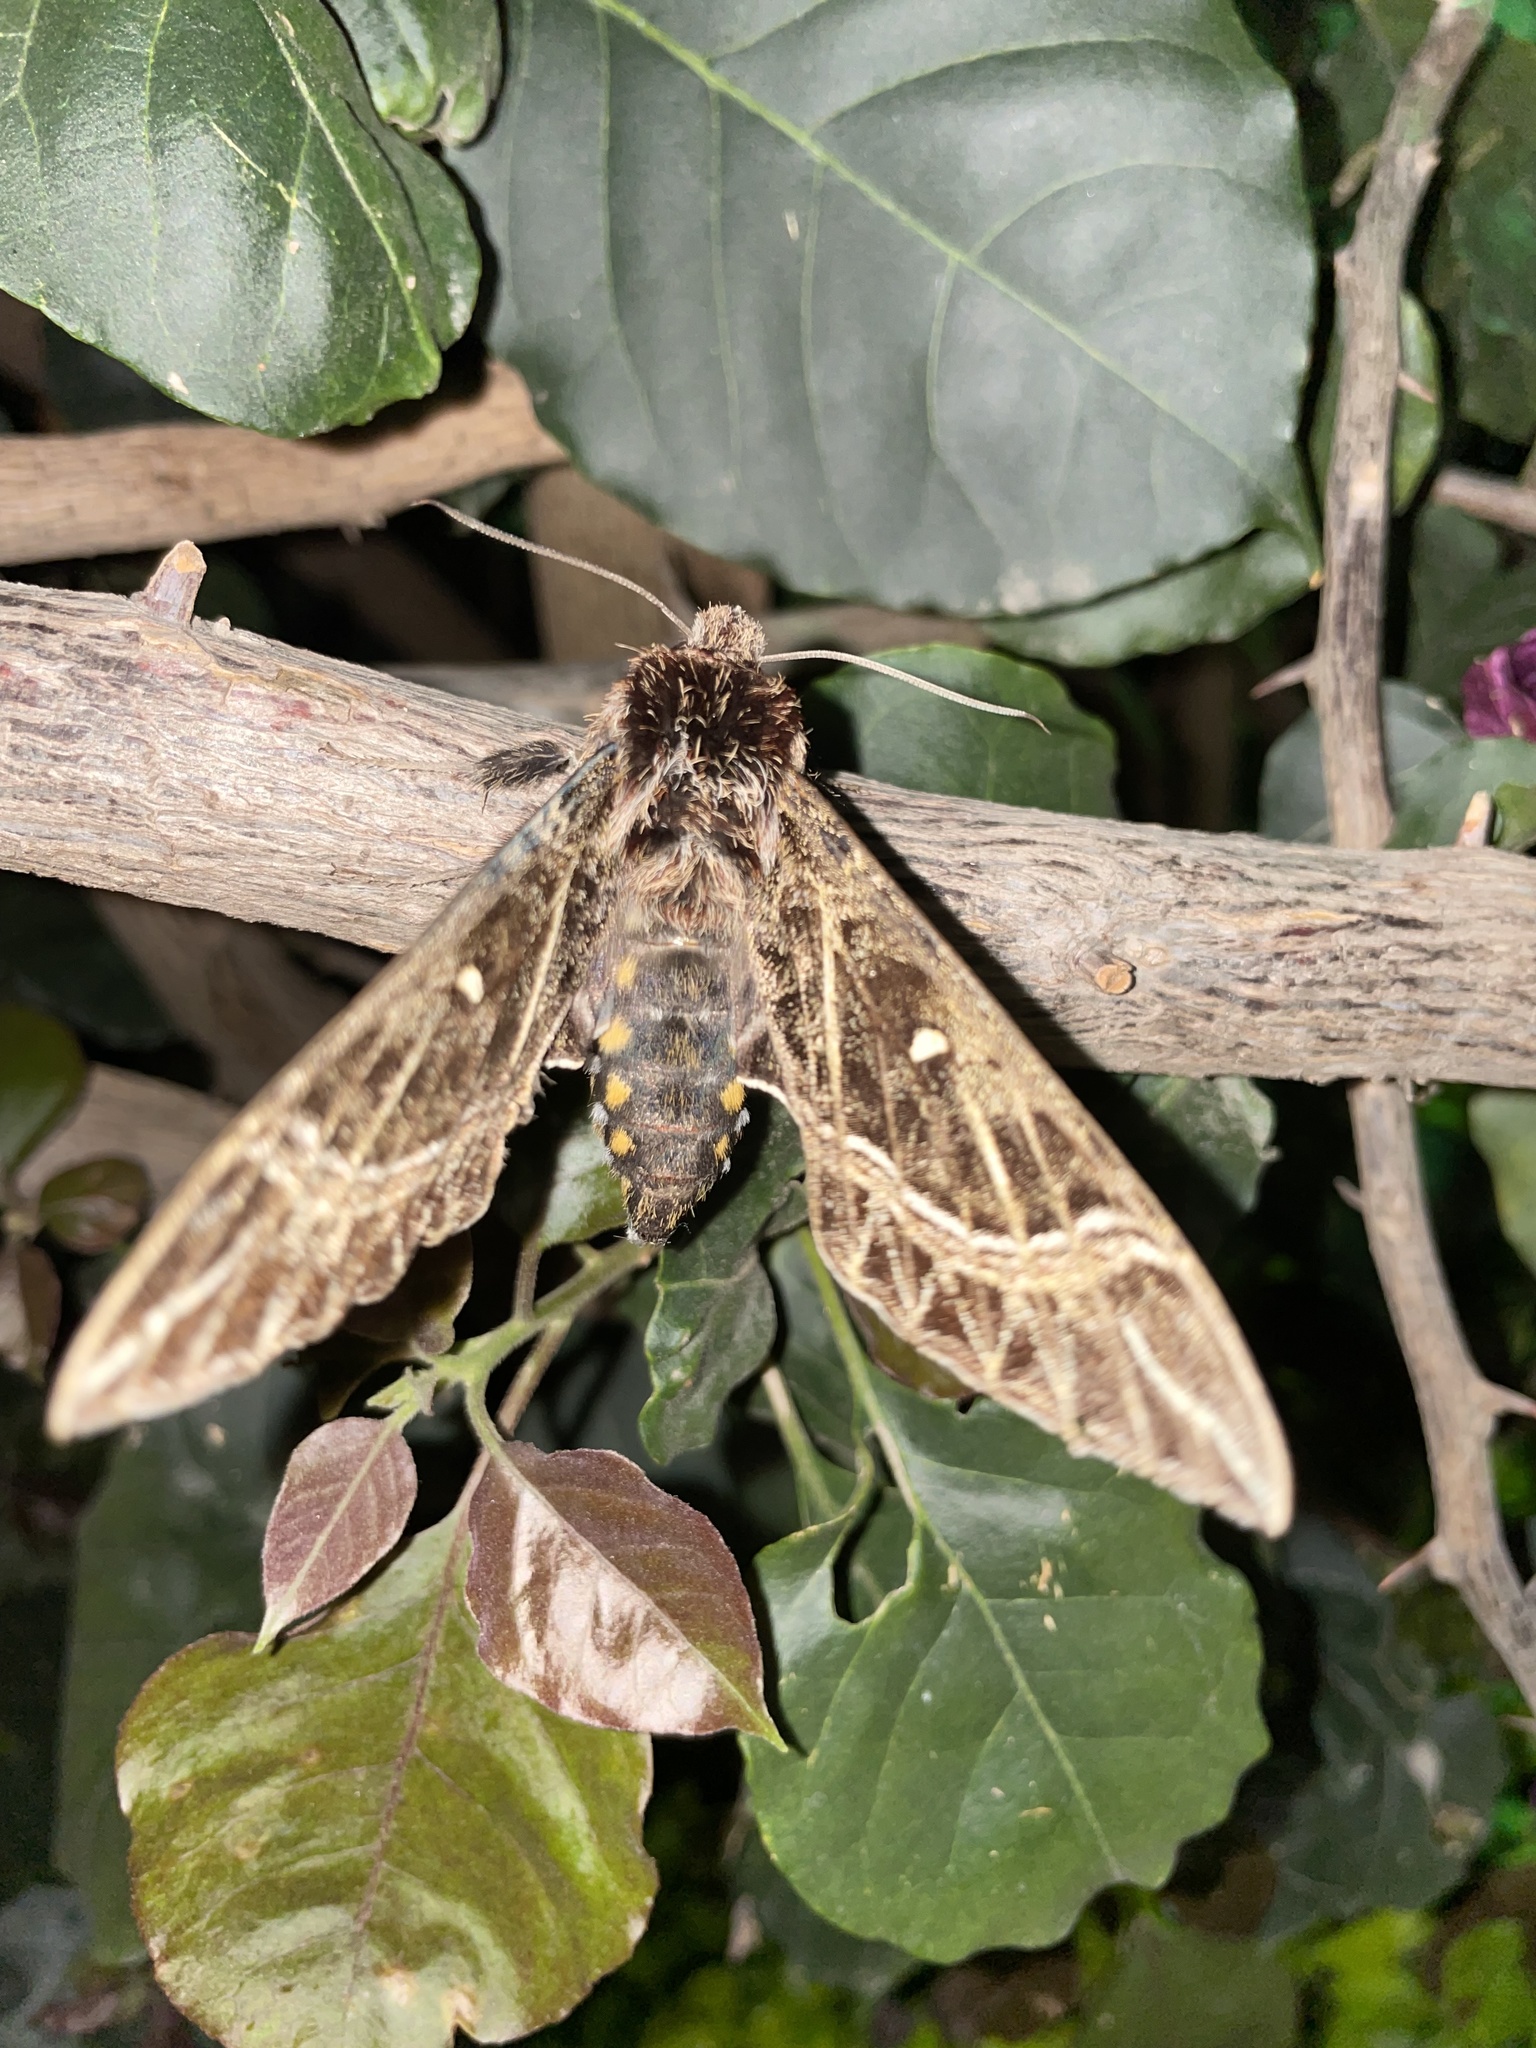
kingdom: Animalia
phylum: Arthropoda
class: Insecta
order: Lepidoptera
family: Sphingidae
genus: Euryglottis
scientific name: Euryglottis aper
